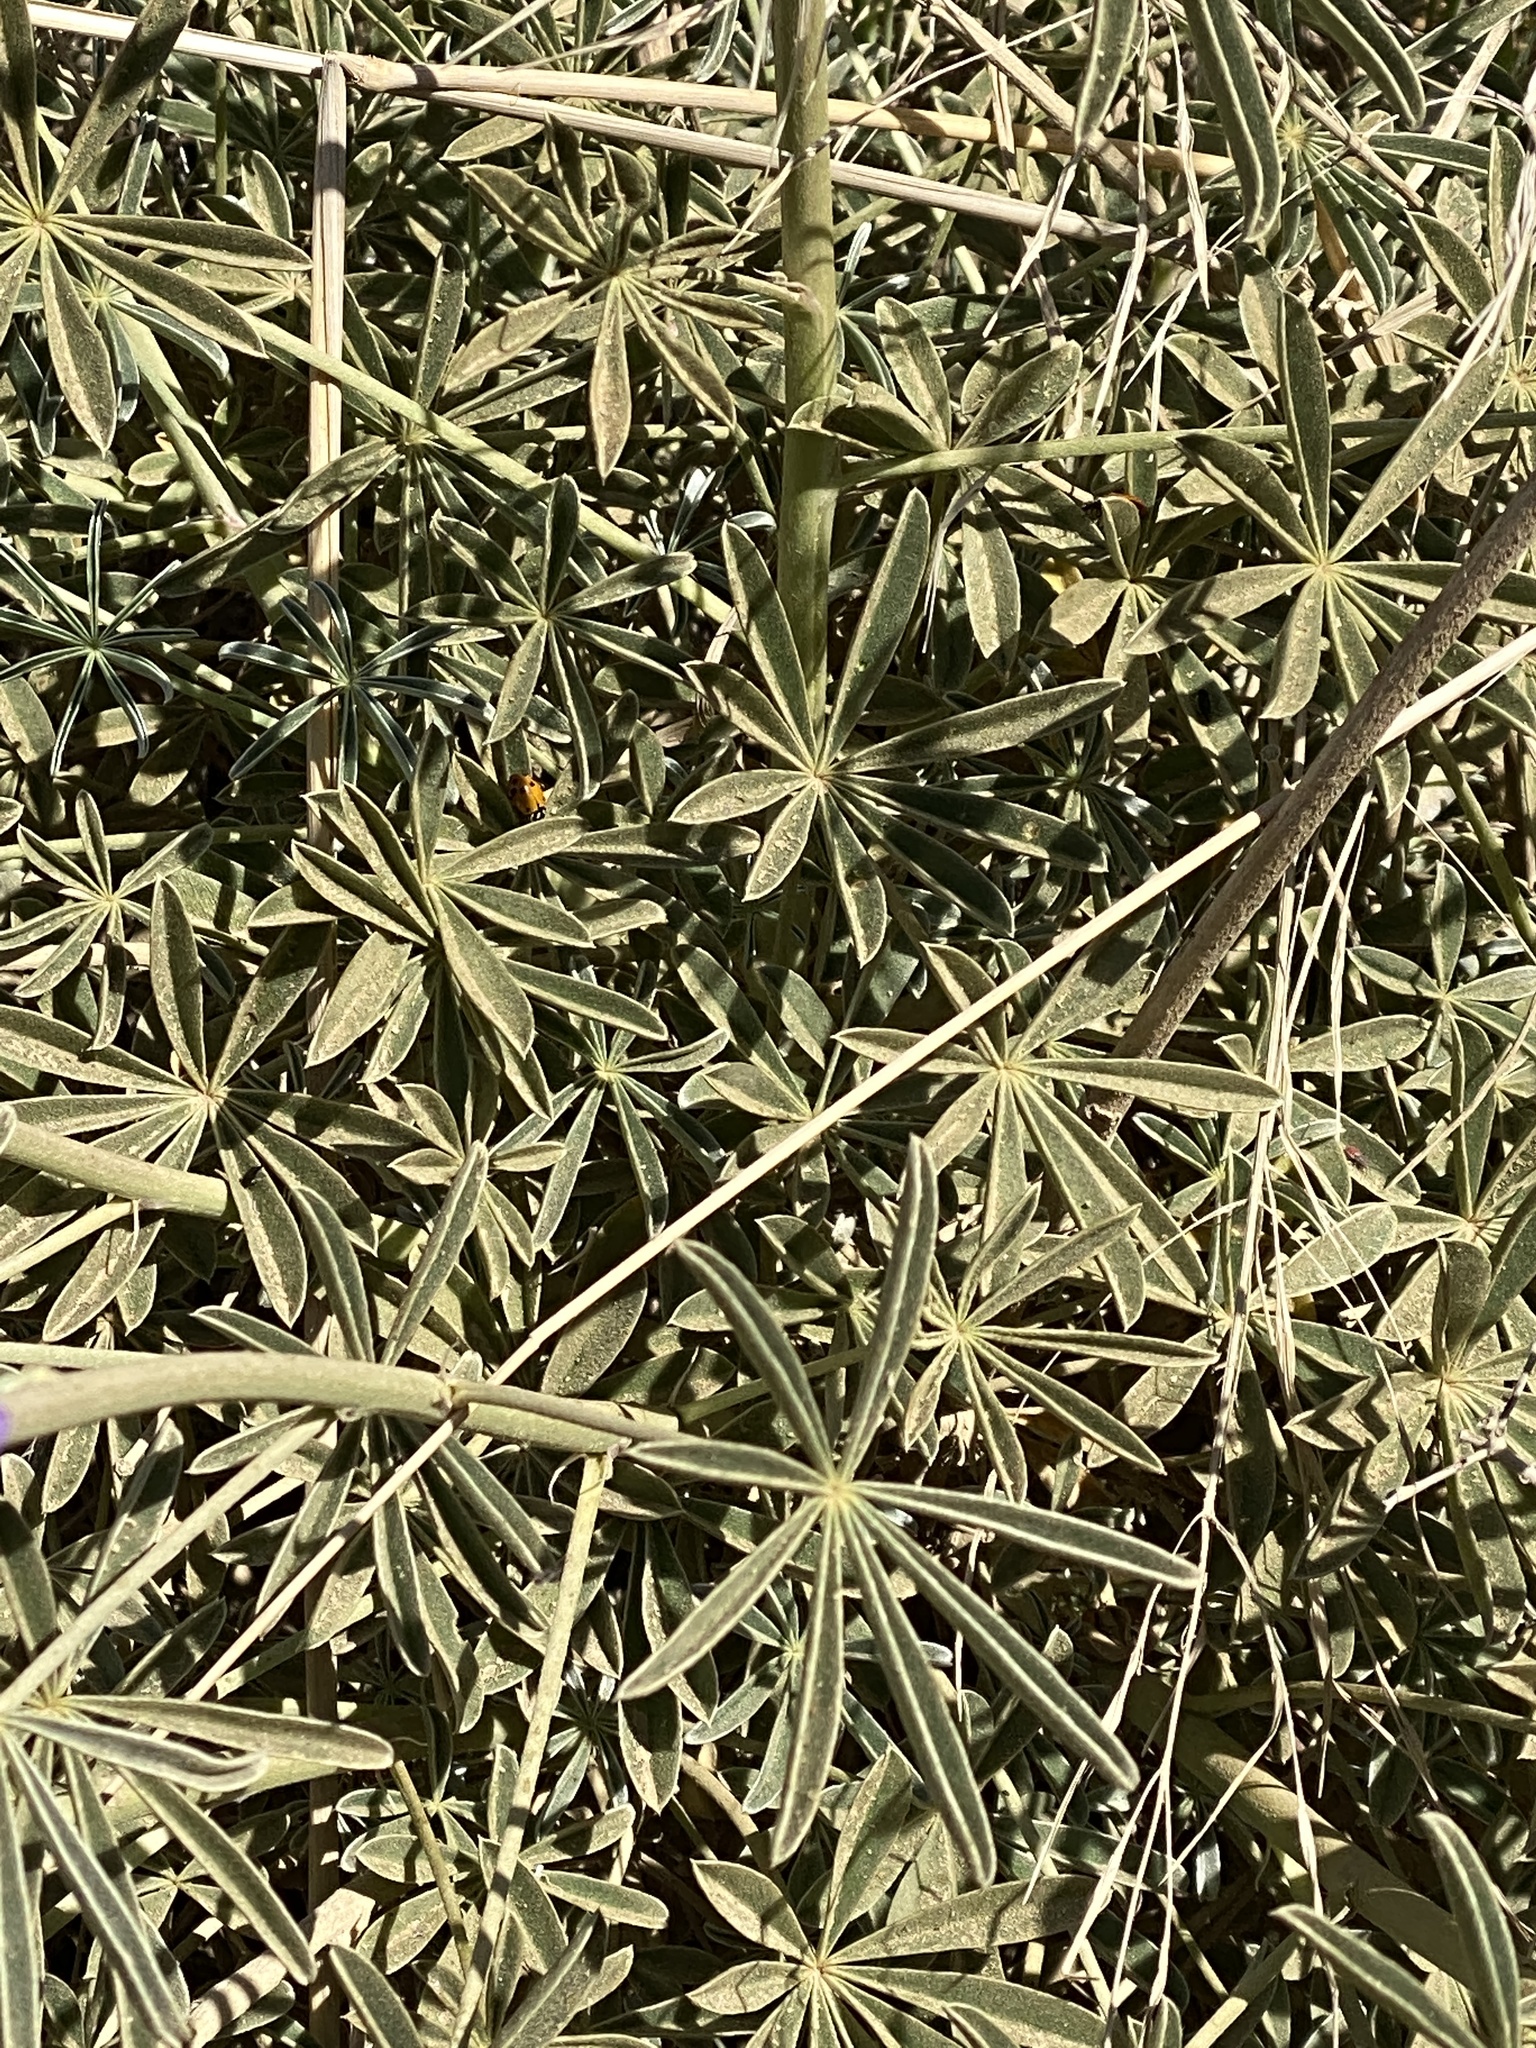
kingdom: Plantae
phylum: Tracheophyta
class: Magnoliopsida
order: Fabales
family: Fabaceae
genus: Lupinus
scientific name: Lupinus excubitus
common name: Grape soda lupine
